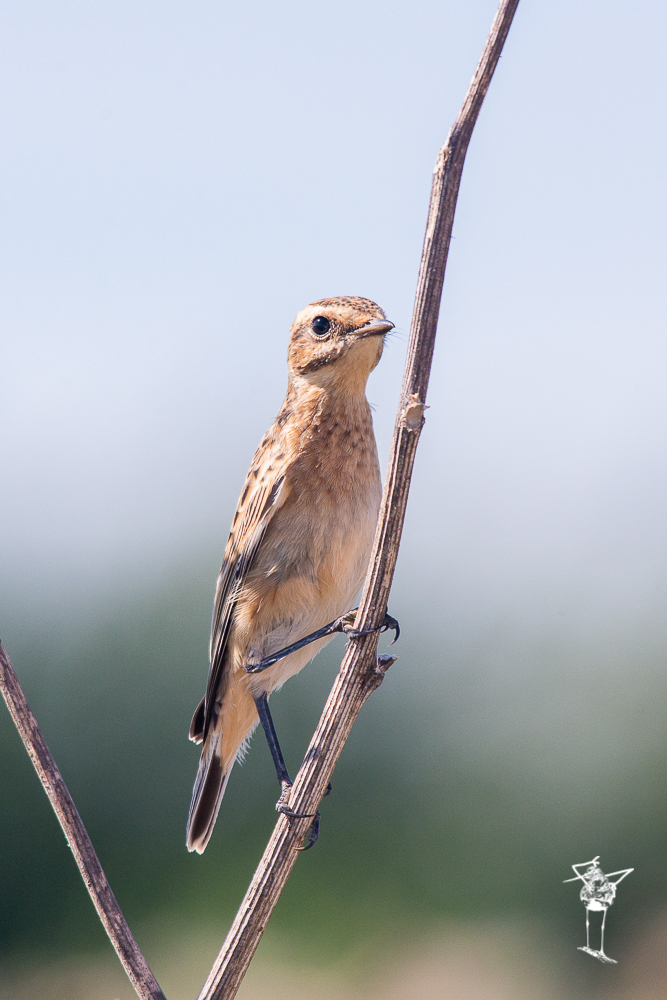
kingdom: Animalia
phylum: Chordata
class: Aves
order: Passeriformes
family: Muscicapidae
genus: Saxicola
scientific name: Saxicola rubetra
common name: Whinchat
